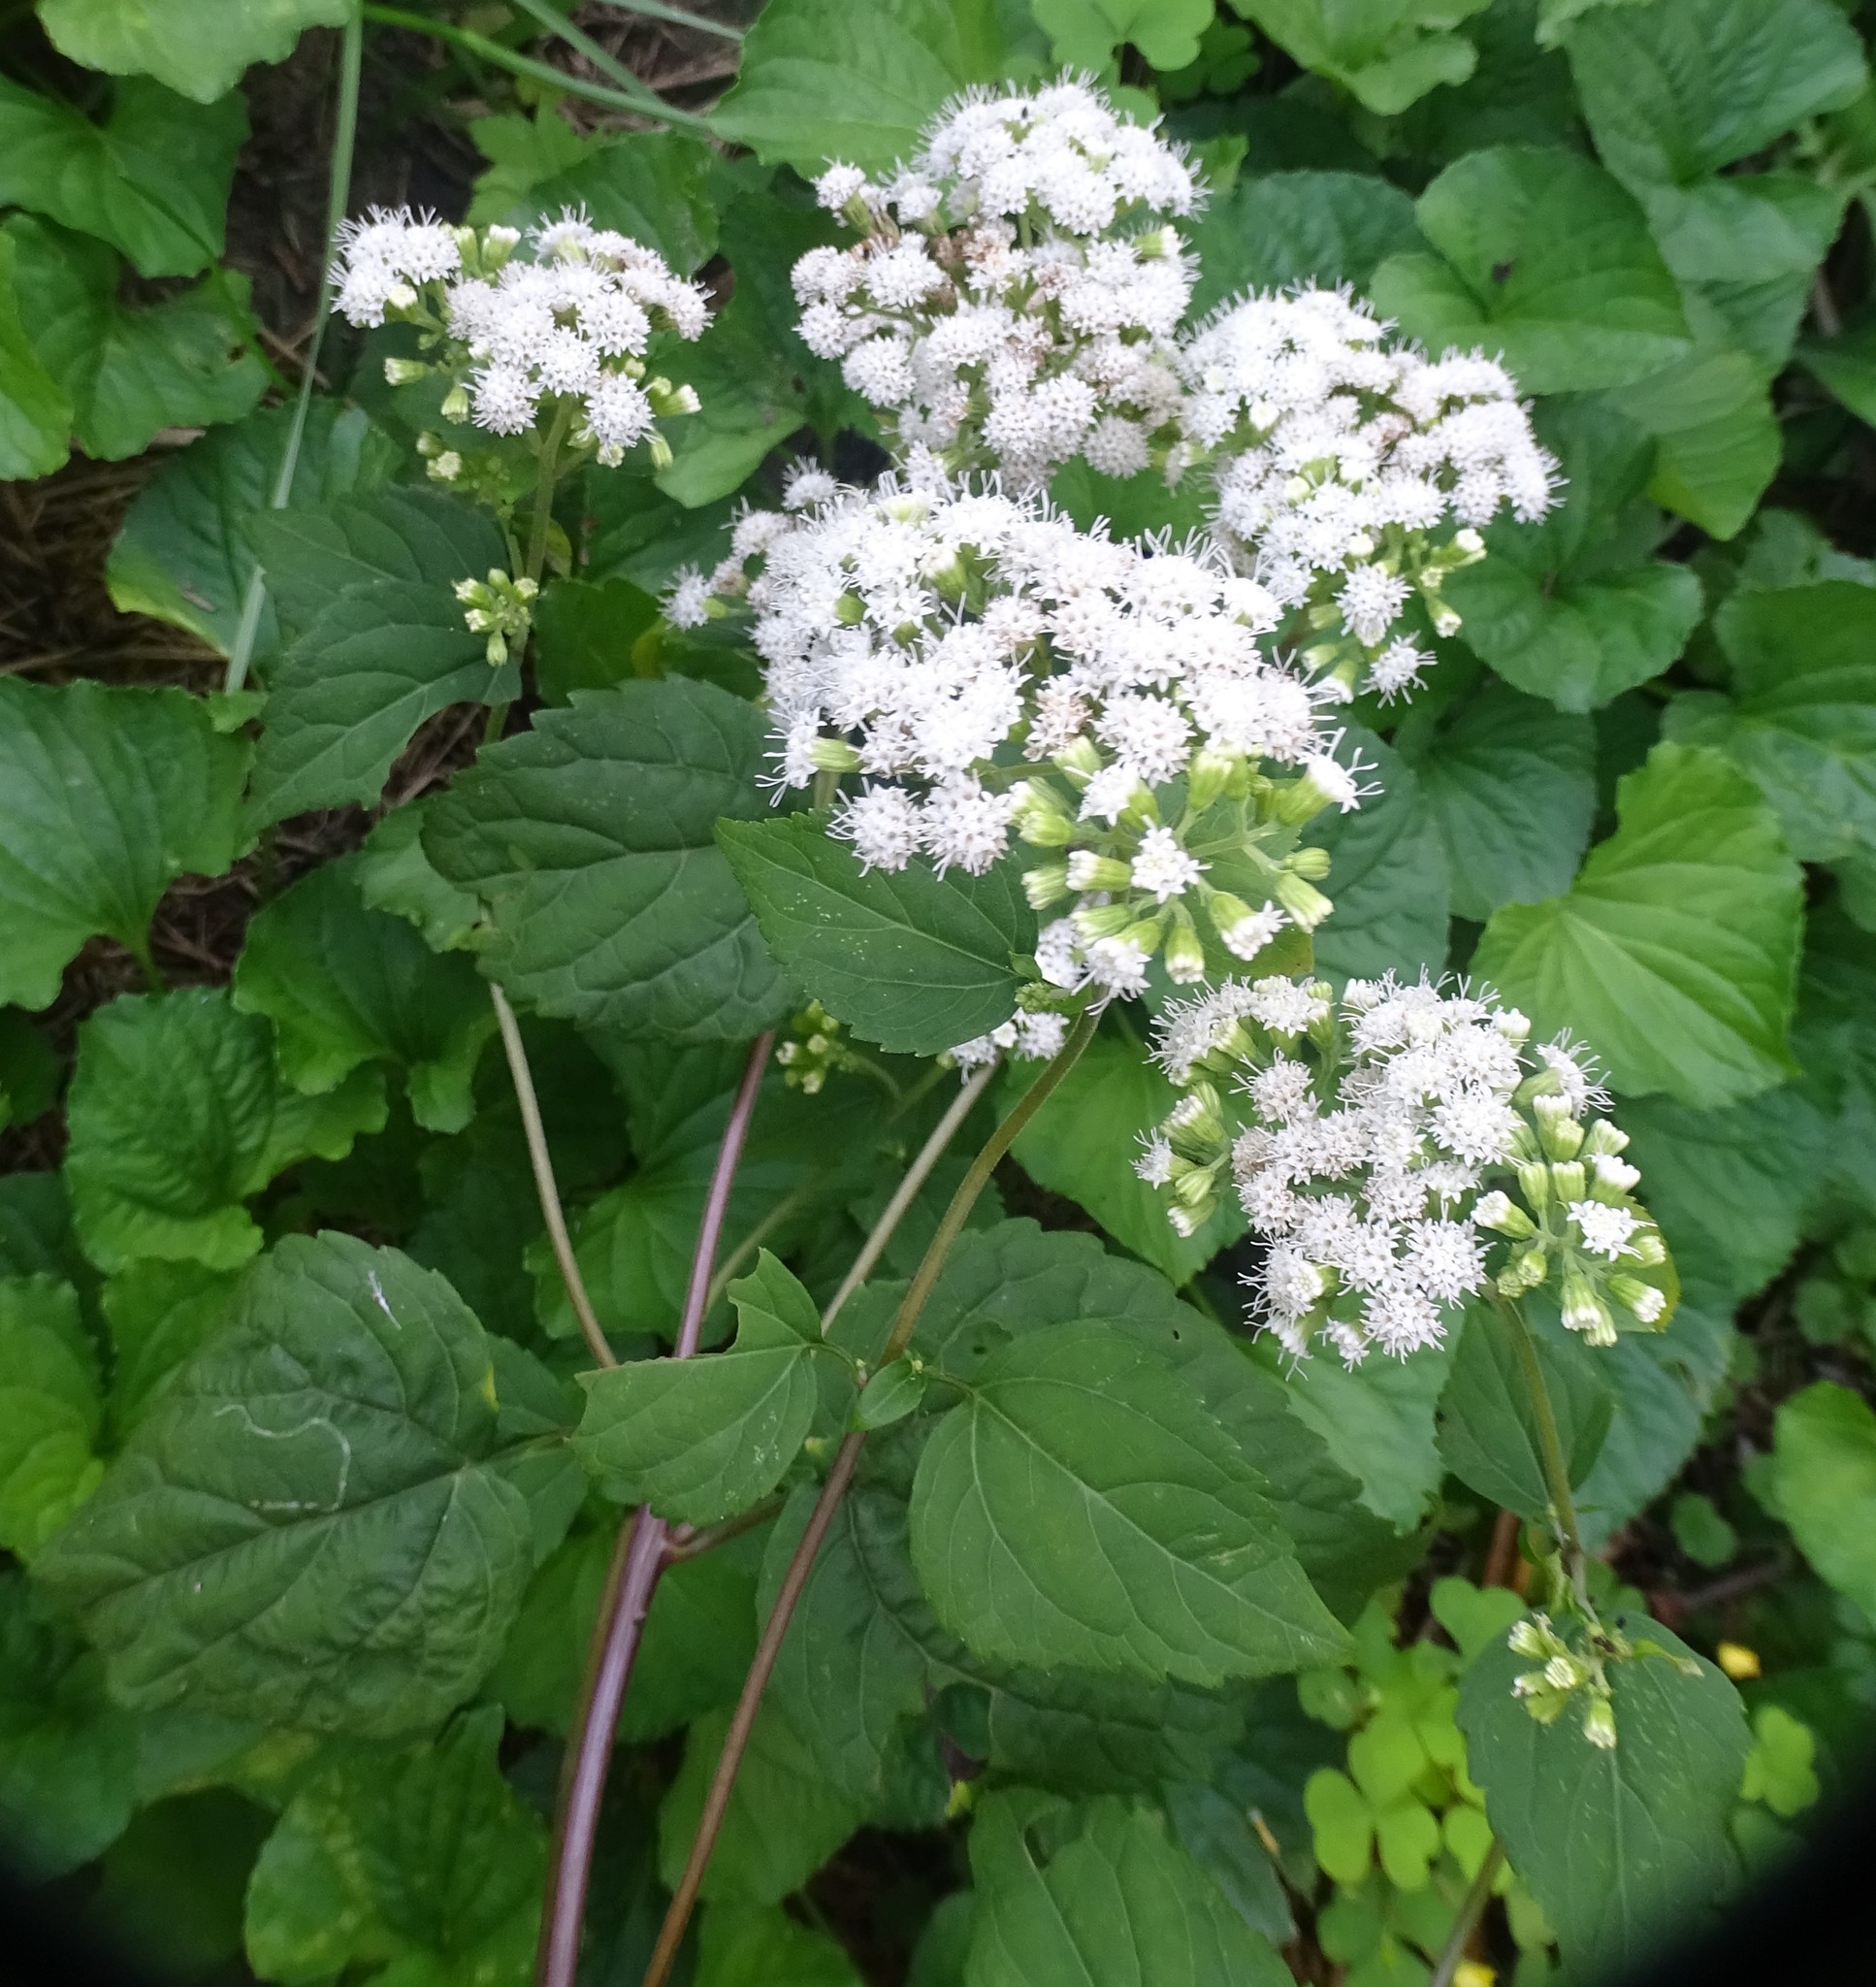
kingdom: Plantae
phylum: Tracheophyta
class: Magnoliopsida
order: Asterales
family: Asteraceae
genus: Ageratina
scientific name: Ageratina altissima
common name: White snakeroot
